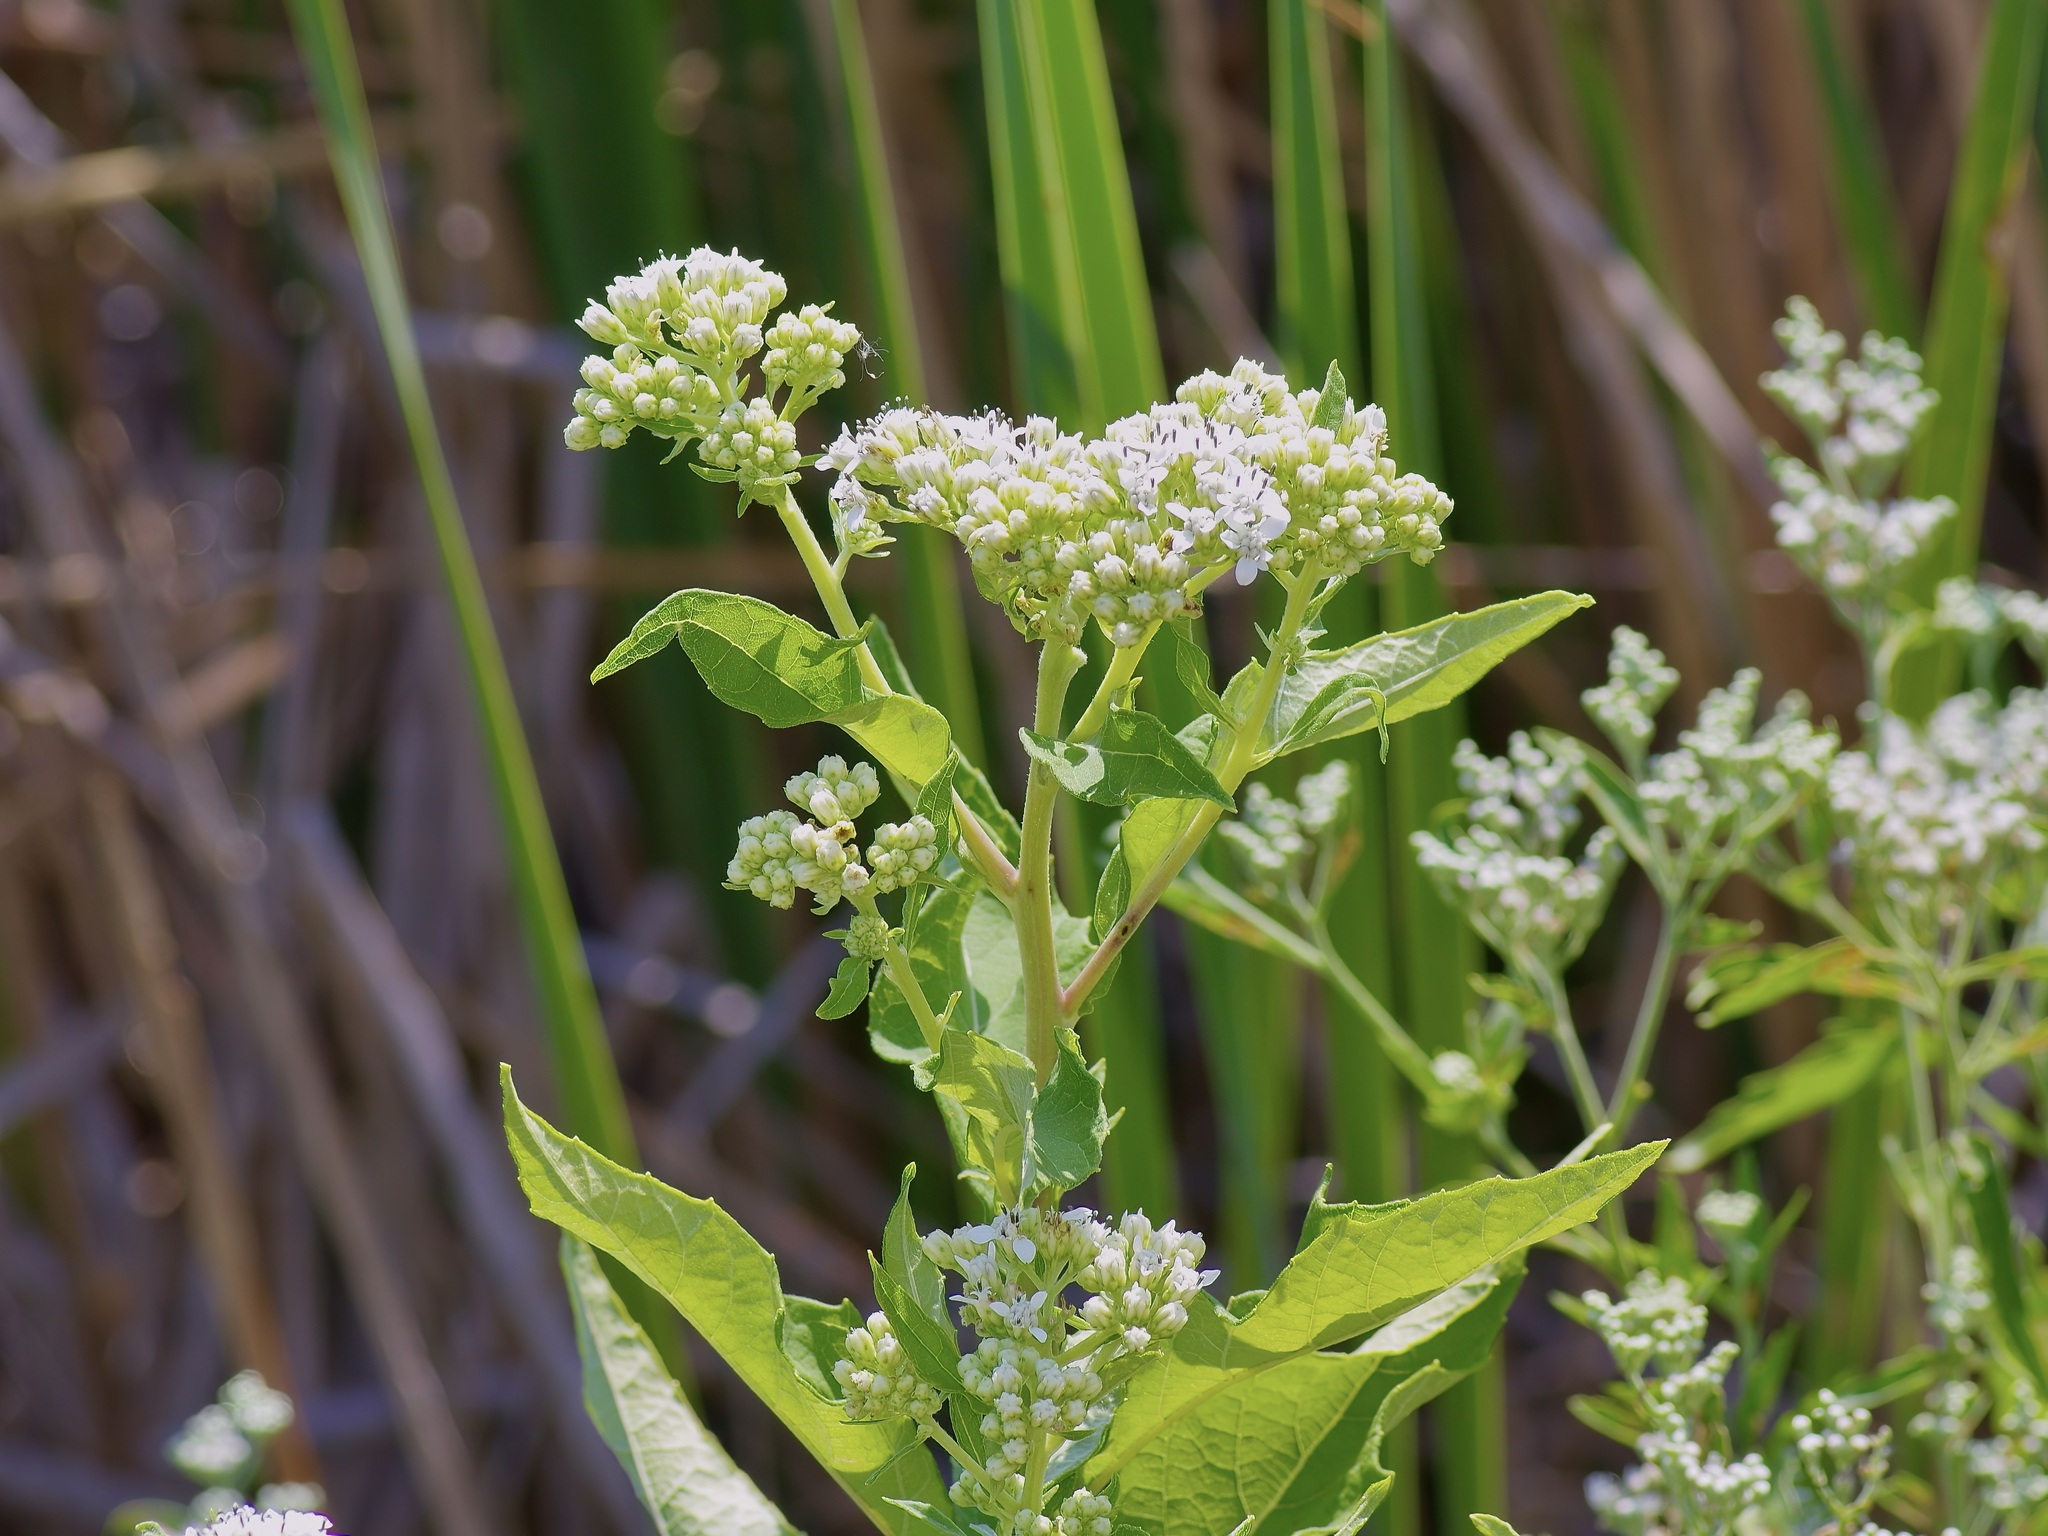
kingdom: Plantae
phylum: Tracheophyta
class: Magnoliopsida
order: Asterales
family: Asteraceae
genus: Eupatorium
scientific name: Eupatorium serotinum
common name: Late boneset
